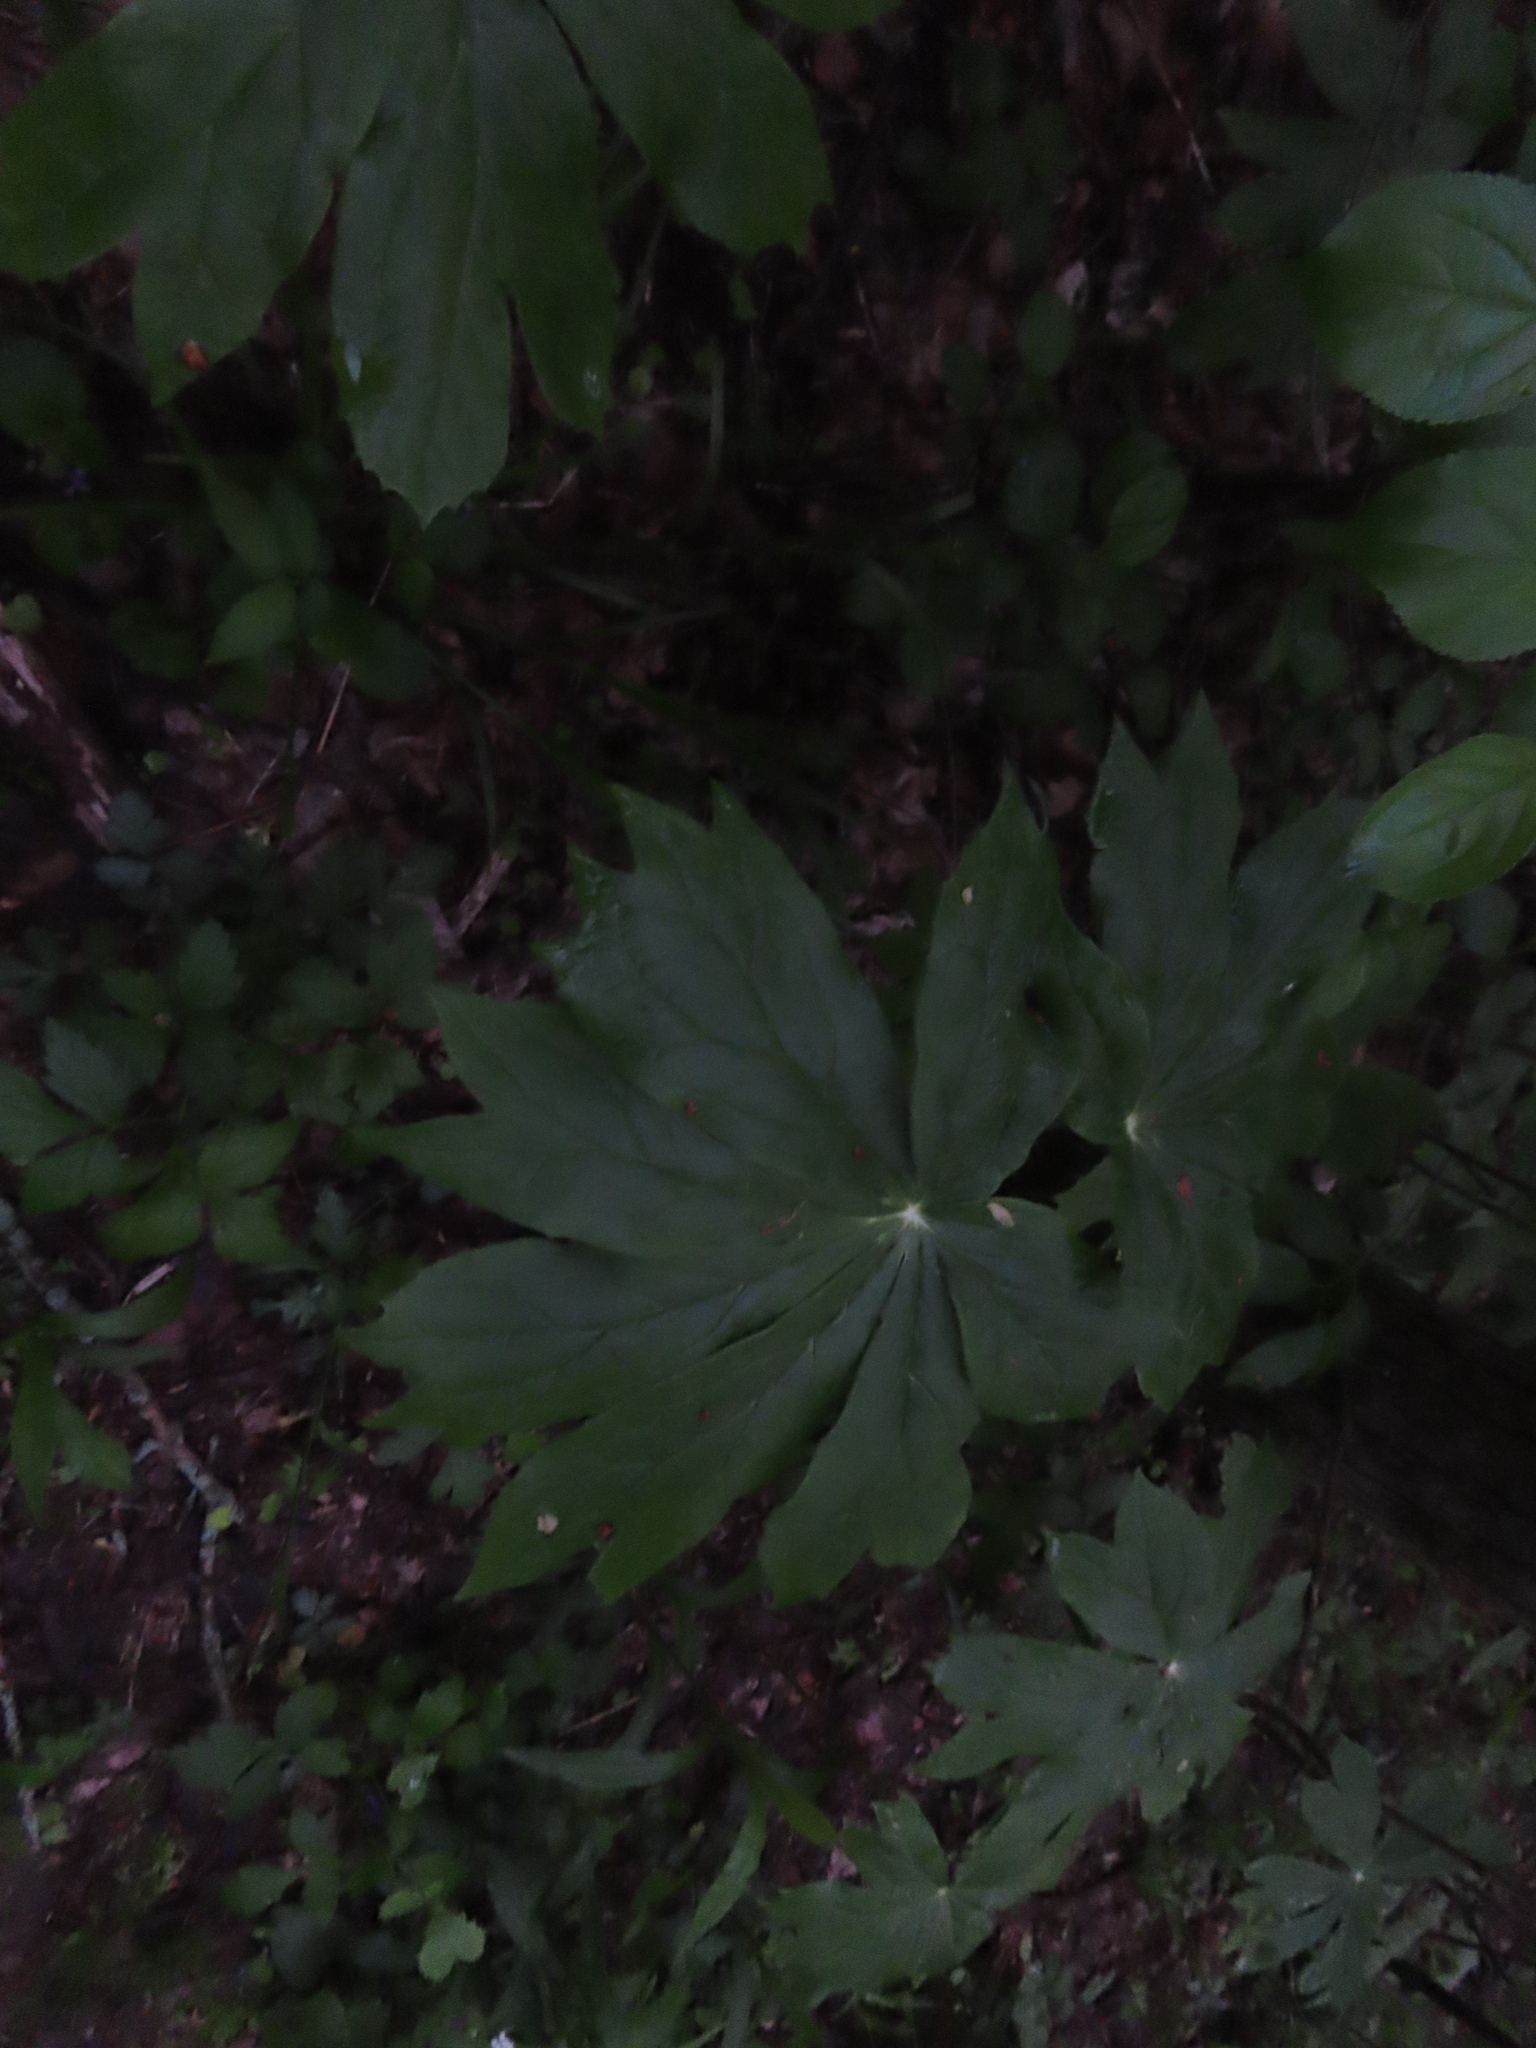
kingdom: Plantae
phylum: Tracheophyta
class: Magnoliopsida
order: Ranunculales
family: Berberidaceae
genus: Podophyllum
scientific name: Podophyllum peltatum
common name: Wild mandrake
